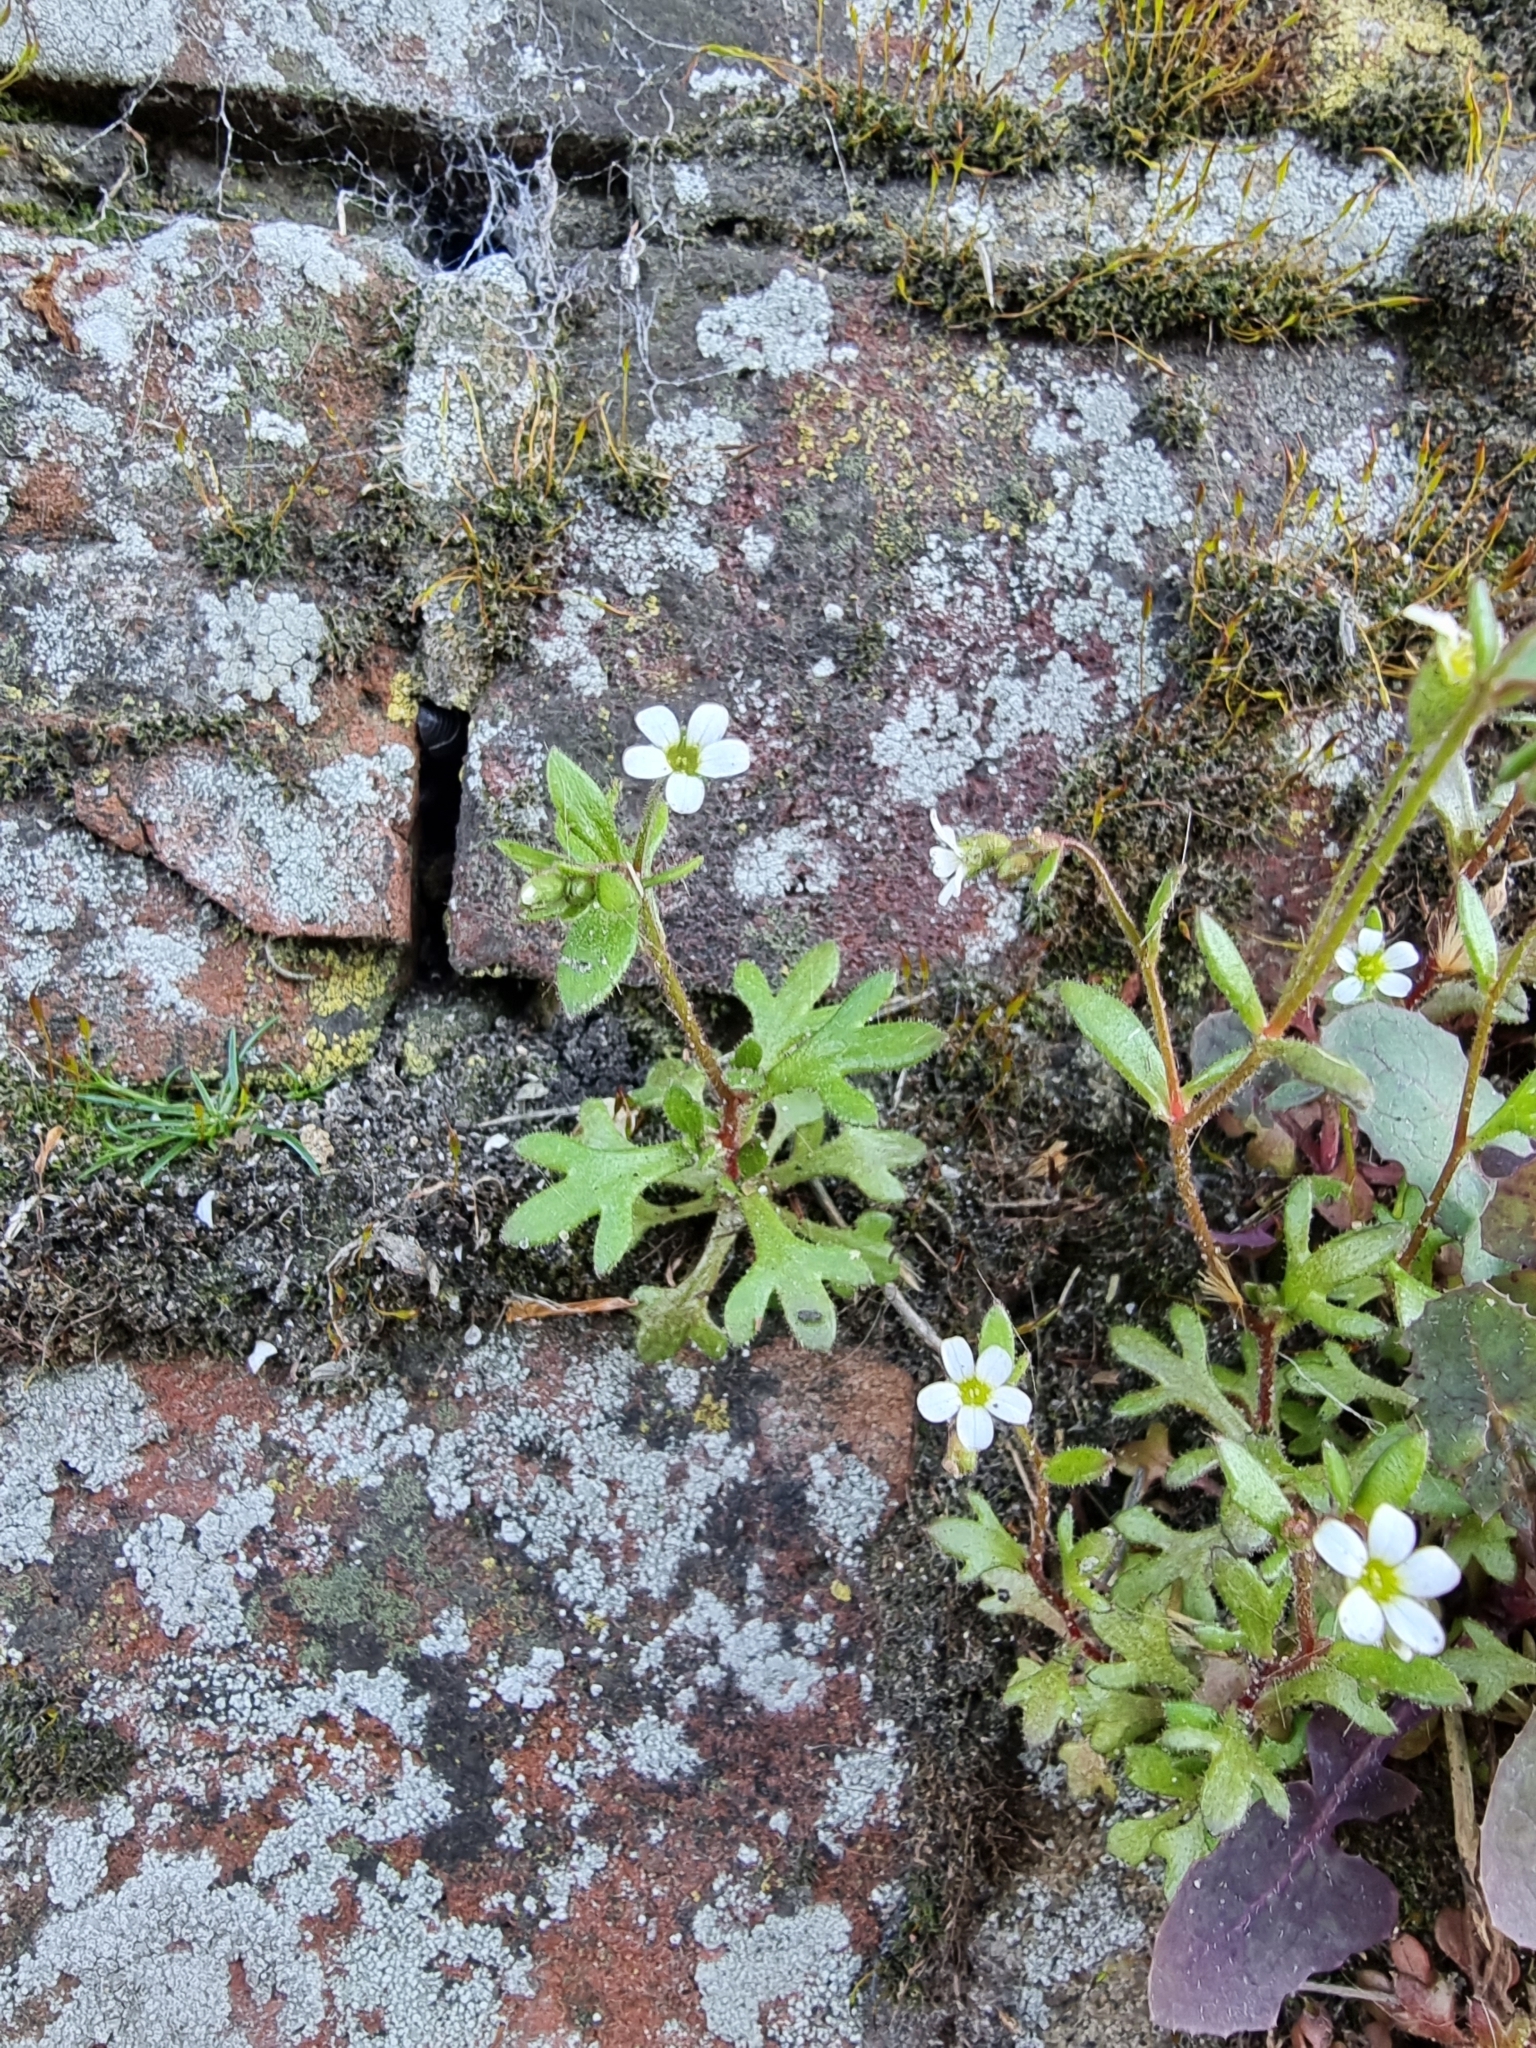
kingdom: Plantae
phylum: Tracheophyta
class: Magnoliopsida
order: Saxifragales
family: Saxifragaceae
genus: Saxifraga
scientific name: Saxifraga tridactylites
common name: Rue-leaved saxifrage
